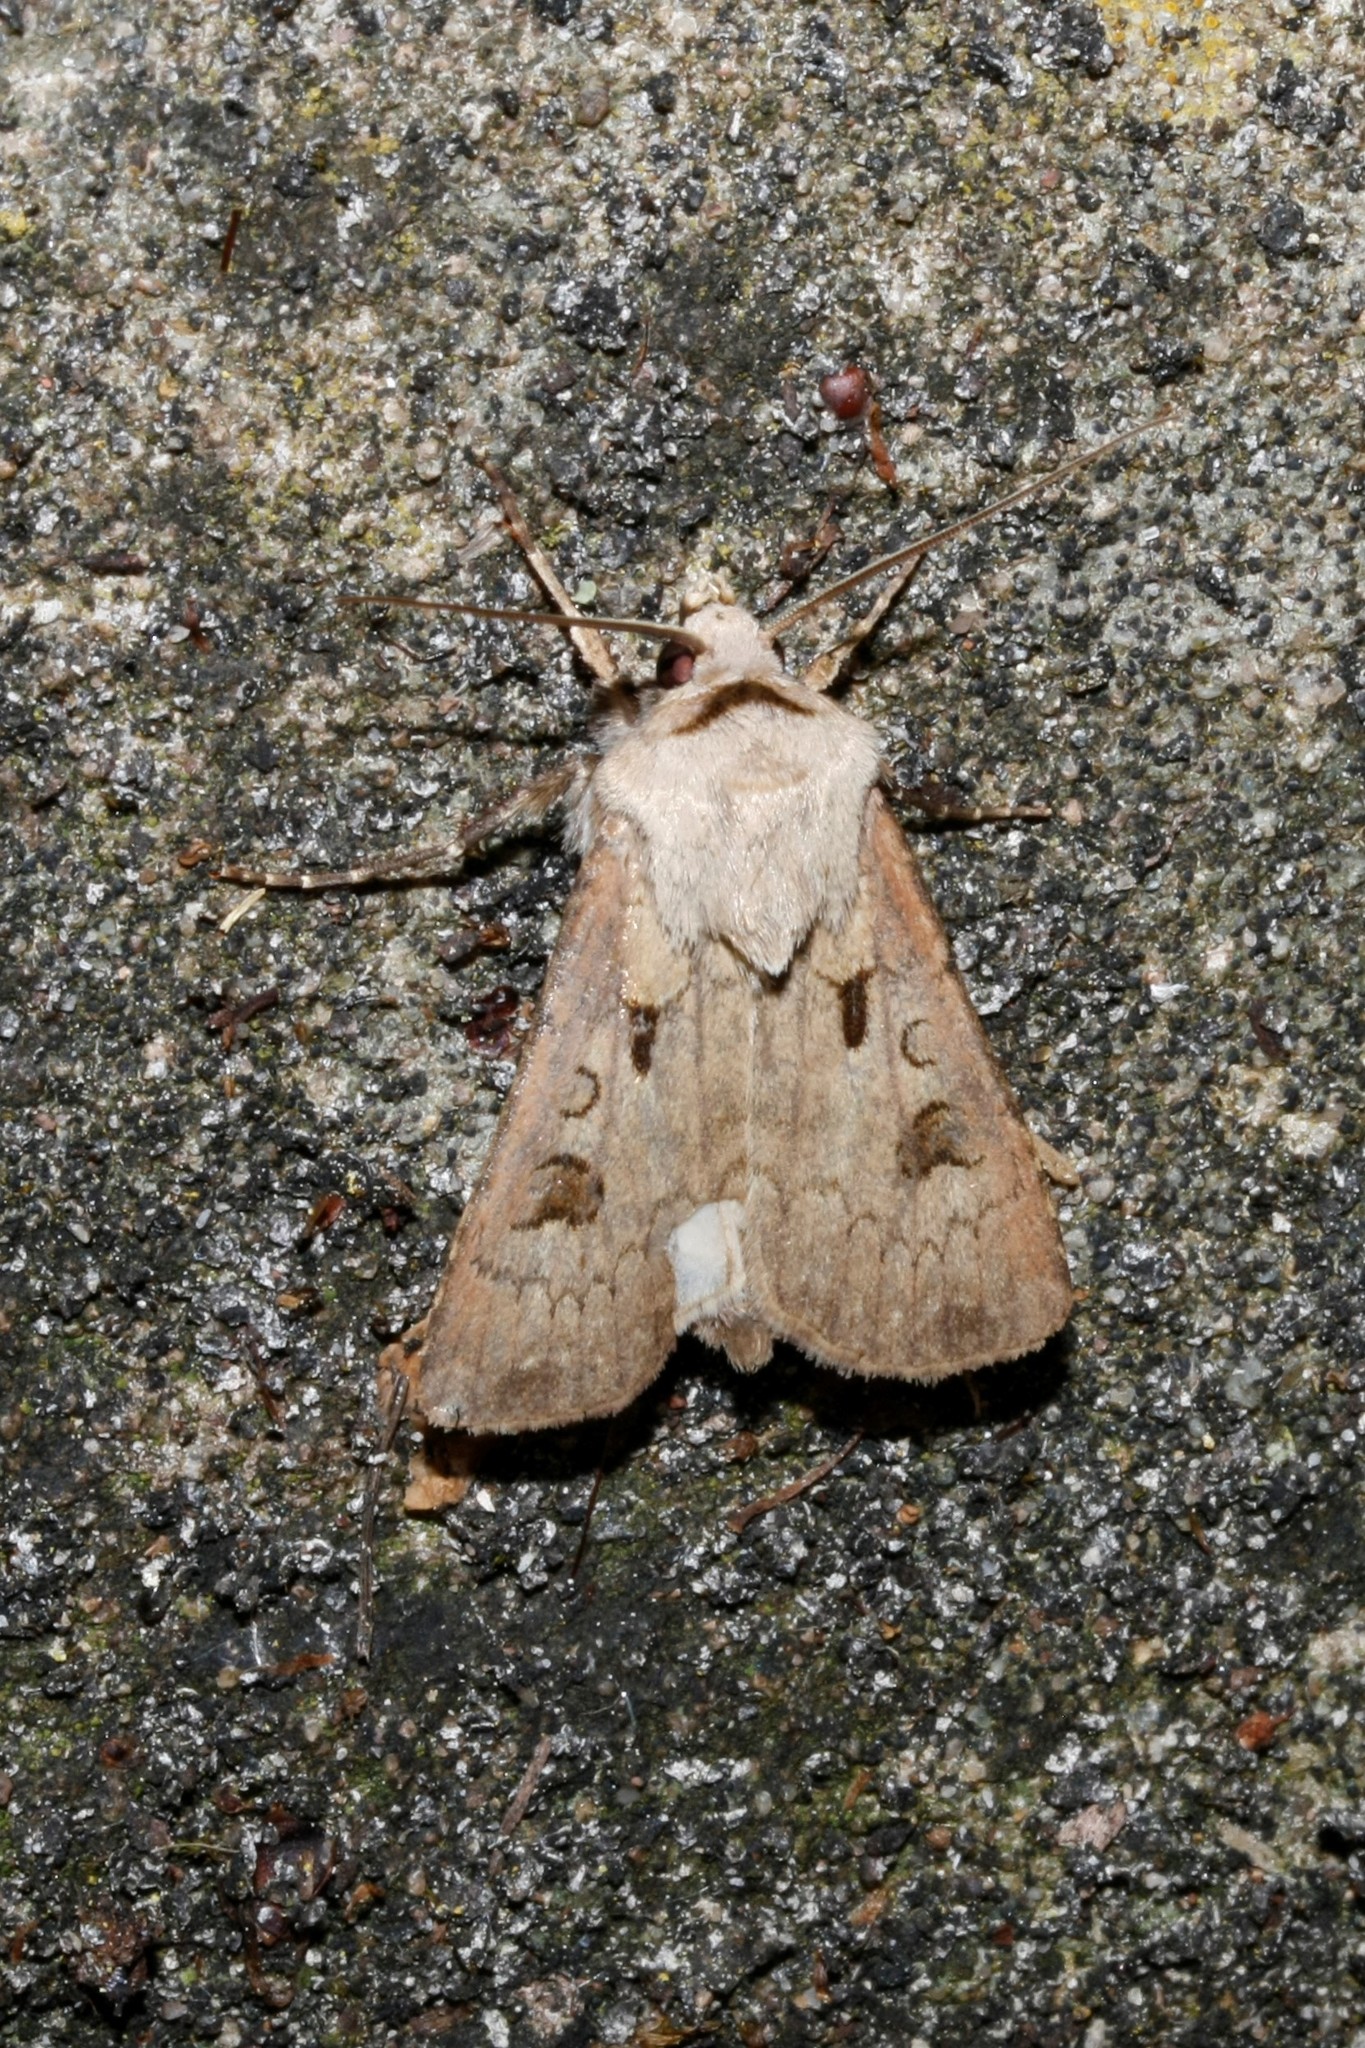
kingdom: Animalia
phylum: Arthropoda
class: Insecta
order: Lepidoptera
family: Noctuidae
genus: Agrotis
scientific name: Agrotis exclamationis
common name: Heart and dart
